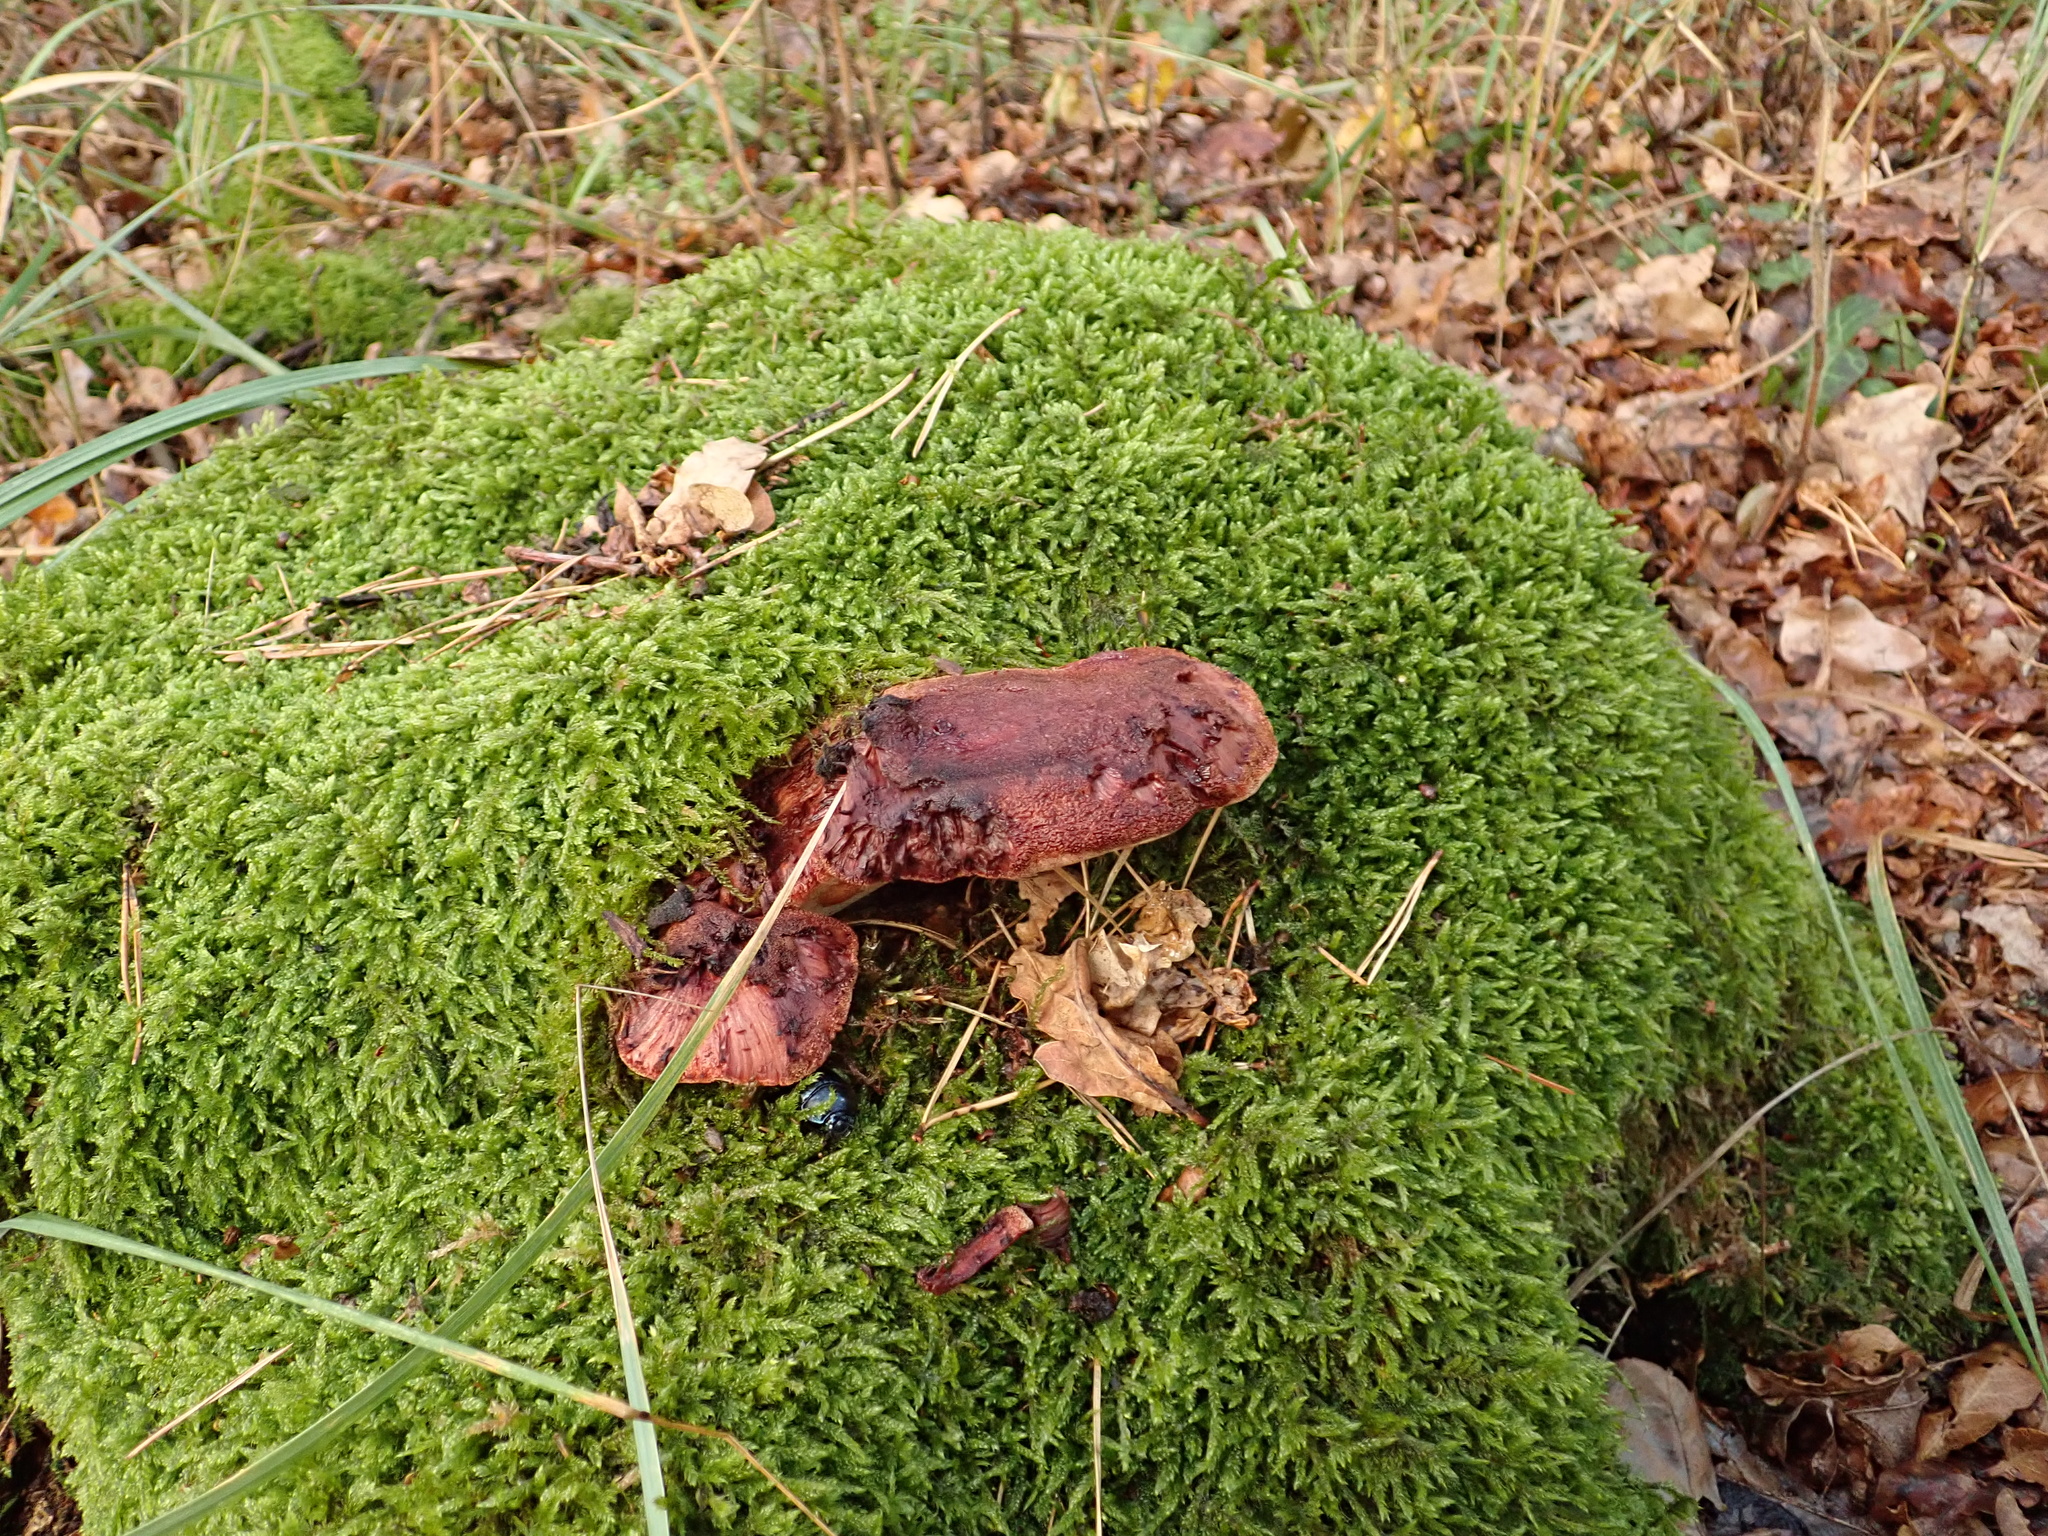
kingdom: Fungi
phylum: Basidiomycota
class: Agaricomycetes
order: Agaricales
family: Fistulinaceae
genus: Fistulina
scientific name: Fistulina hepatica
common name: Beef-steak fungus
